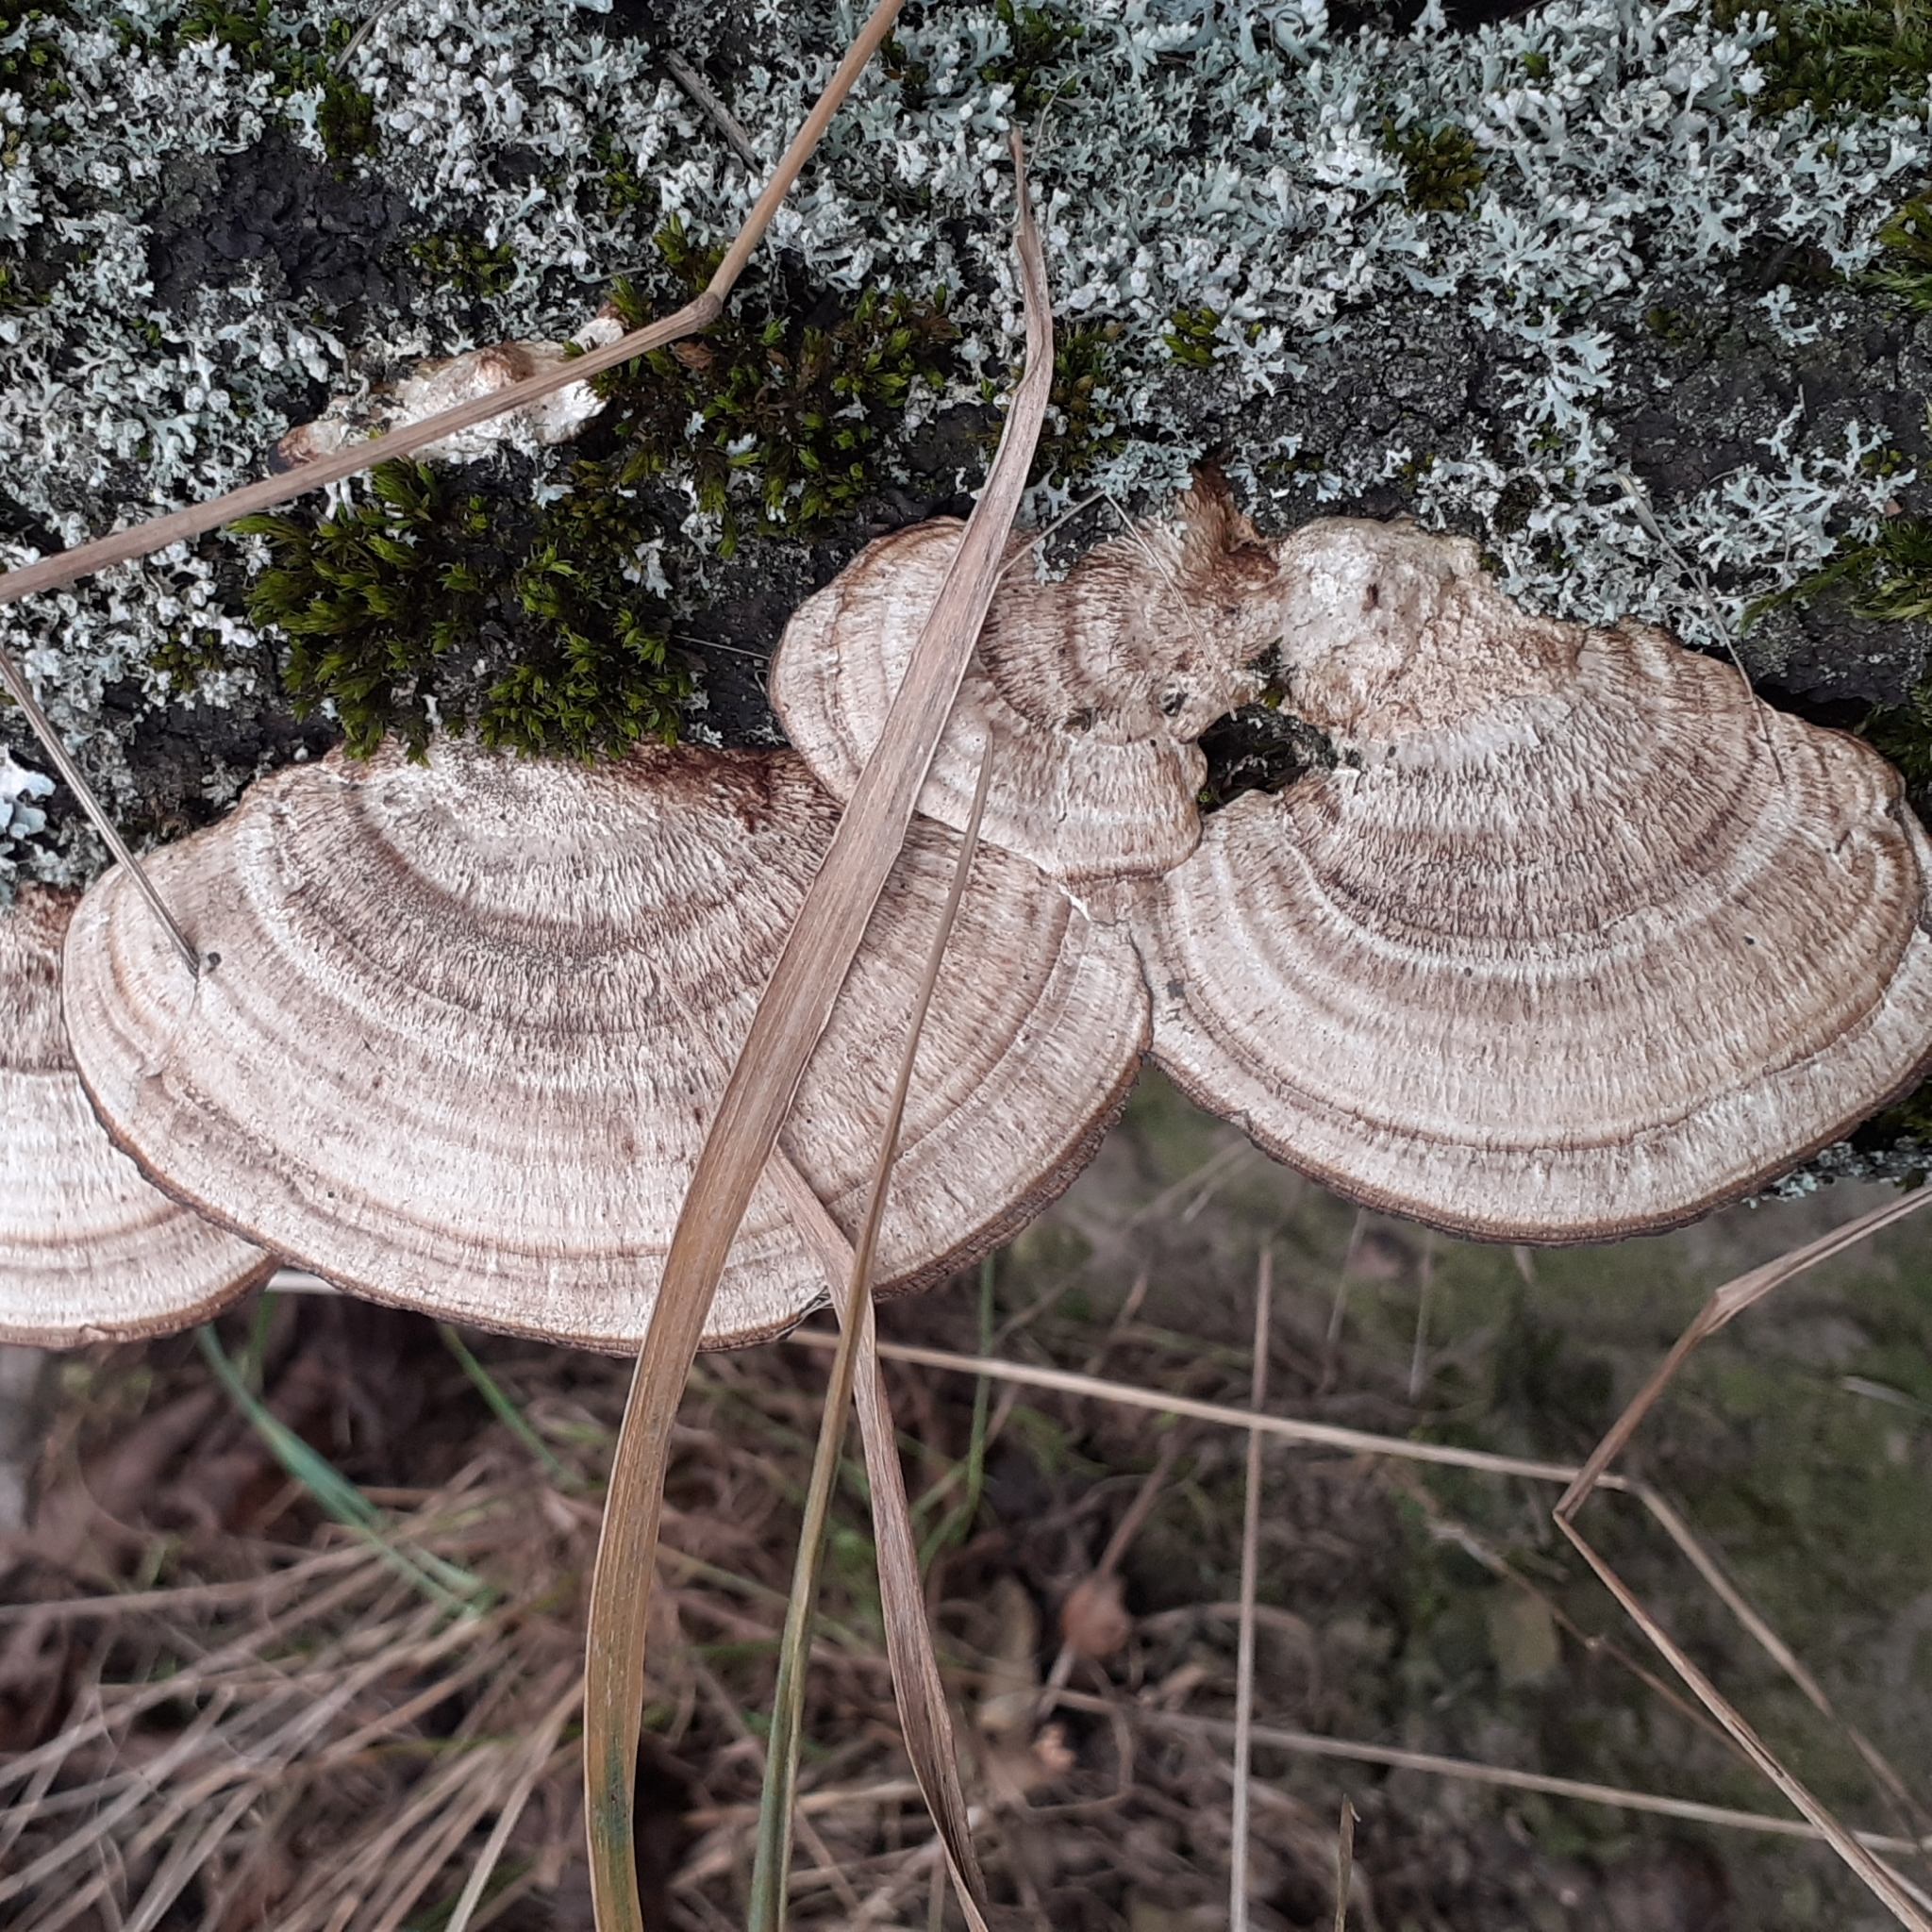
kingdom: Fungi
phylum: Basidiomycota
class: Agaricomycetes
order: Polyporales
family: Polyporaceae
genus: Lenzites
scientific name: Lenzites betulinus
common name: Birch mazegill
